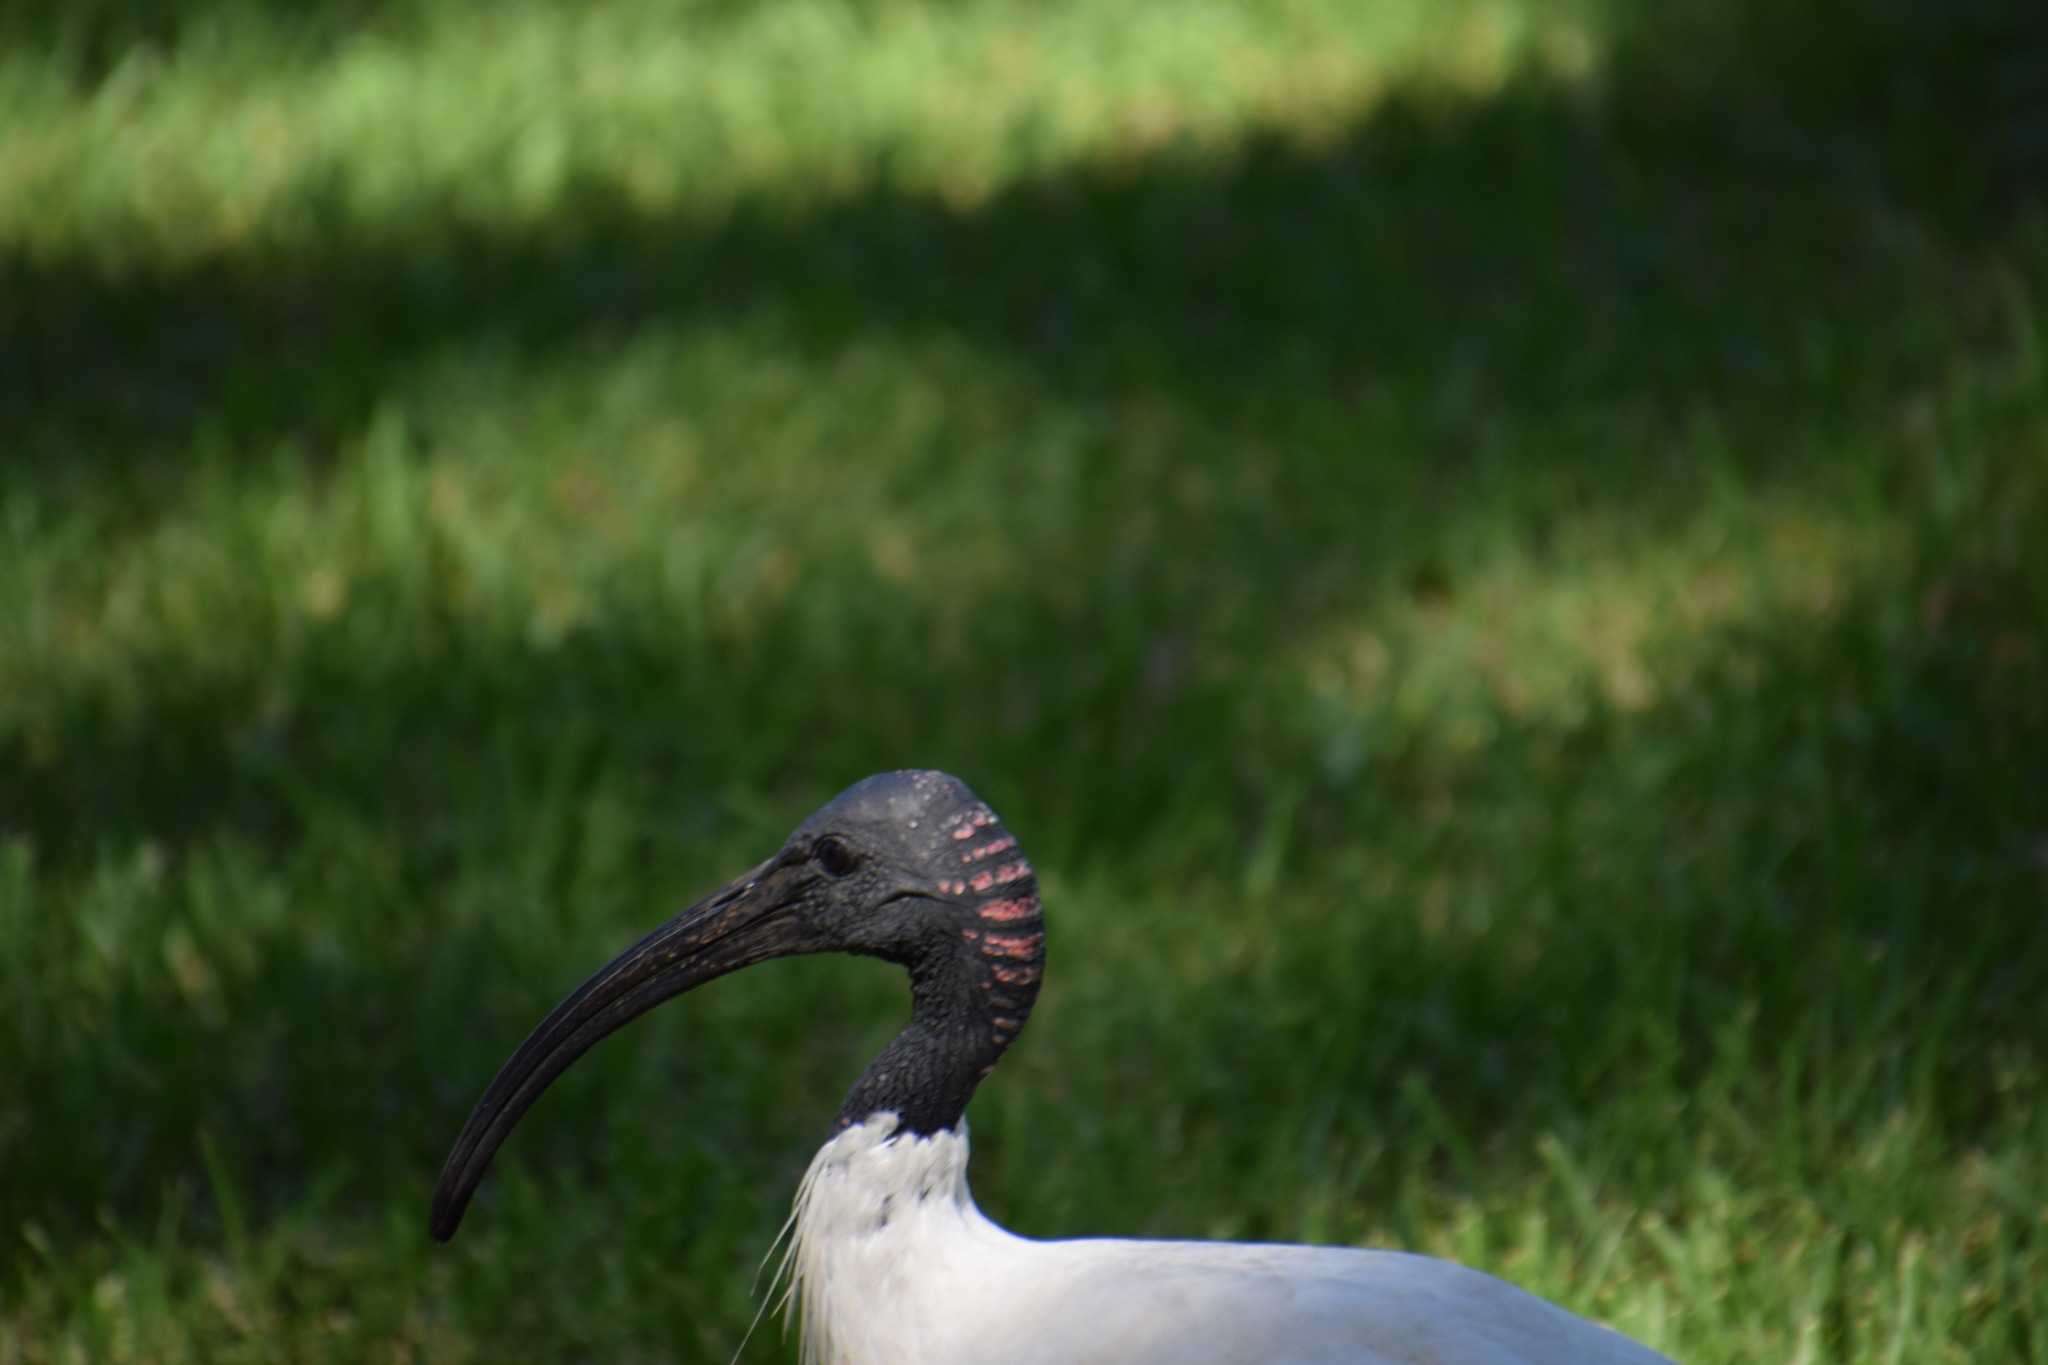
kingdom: Animalia
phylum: Chordata
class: Aves
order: Pelecaniformes
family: Threskiornithidae
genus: Threskiornis
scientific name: Threskiornis molucca
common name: Australian white ibis
